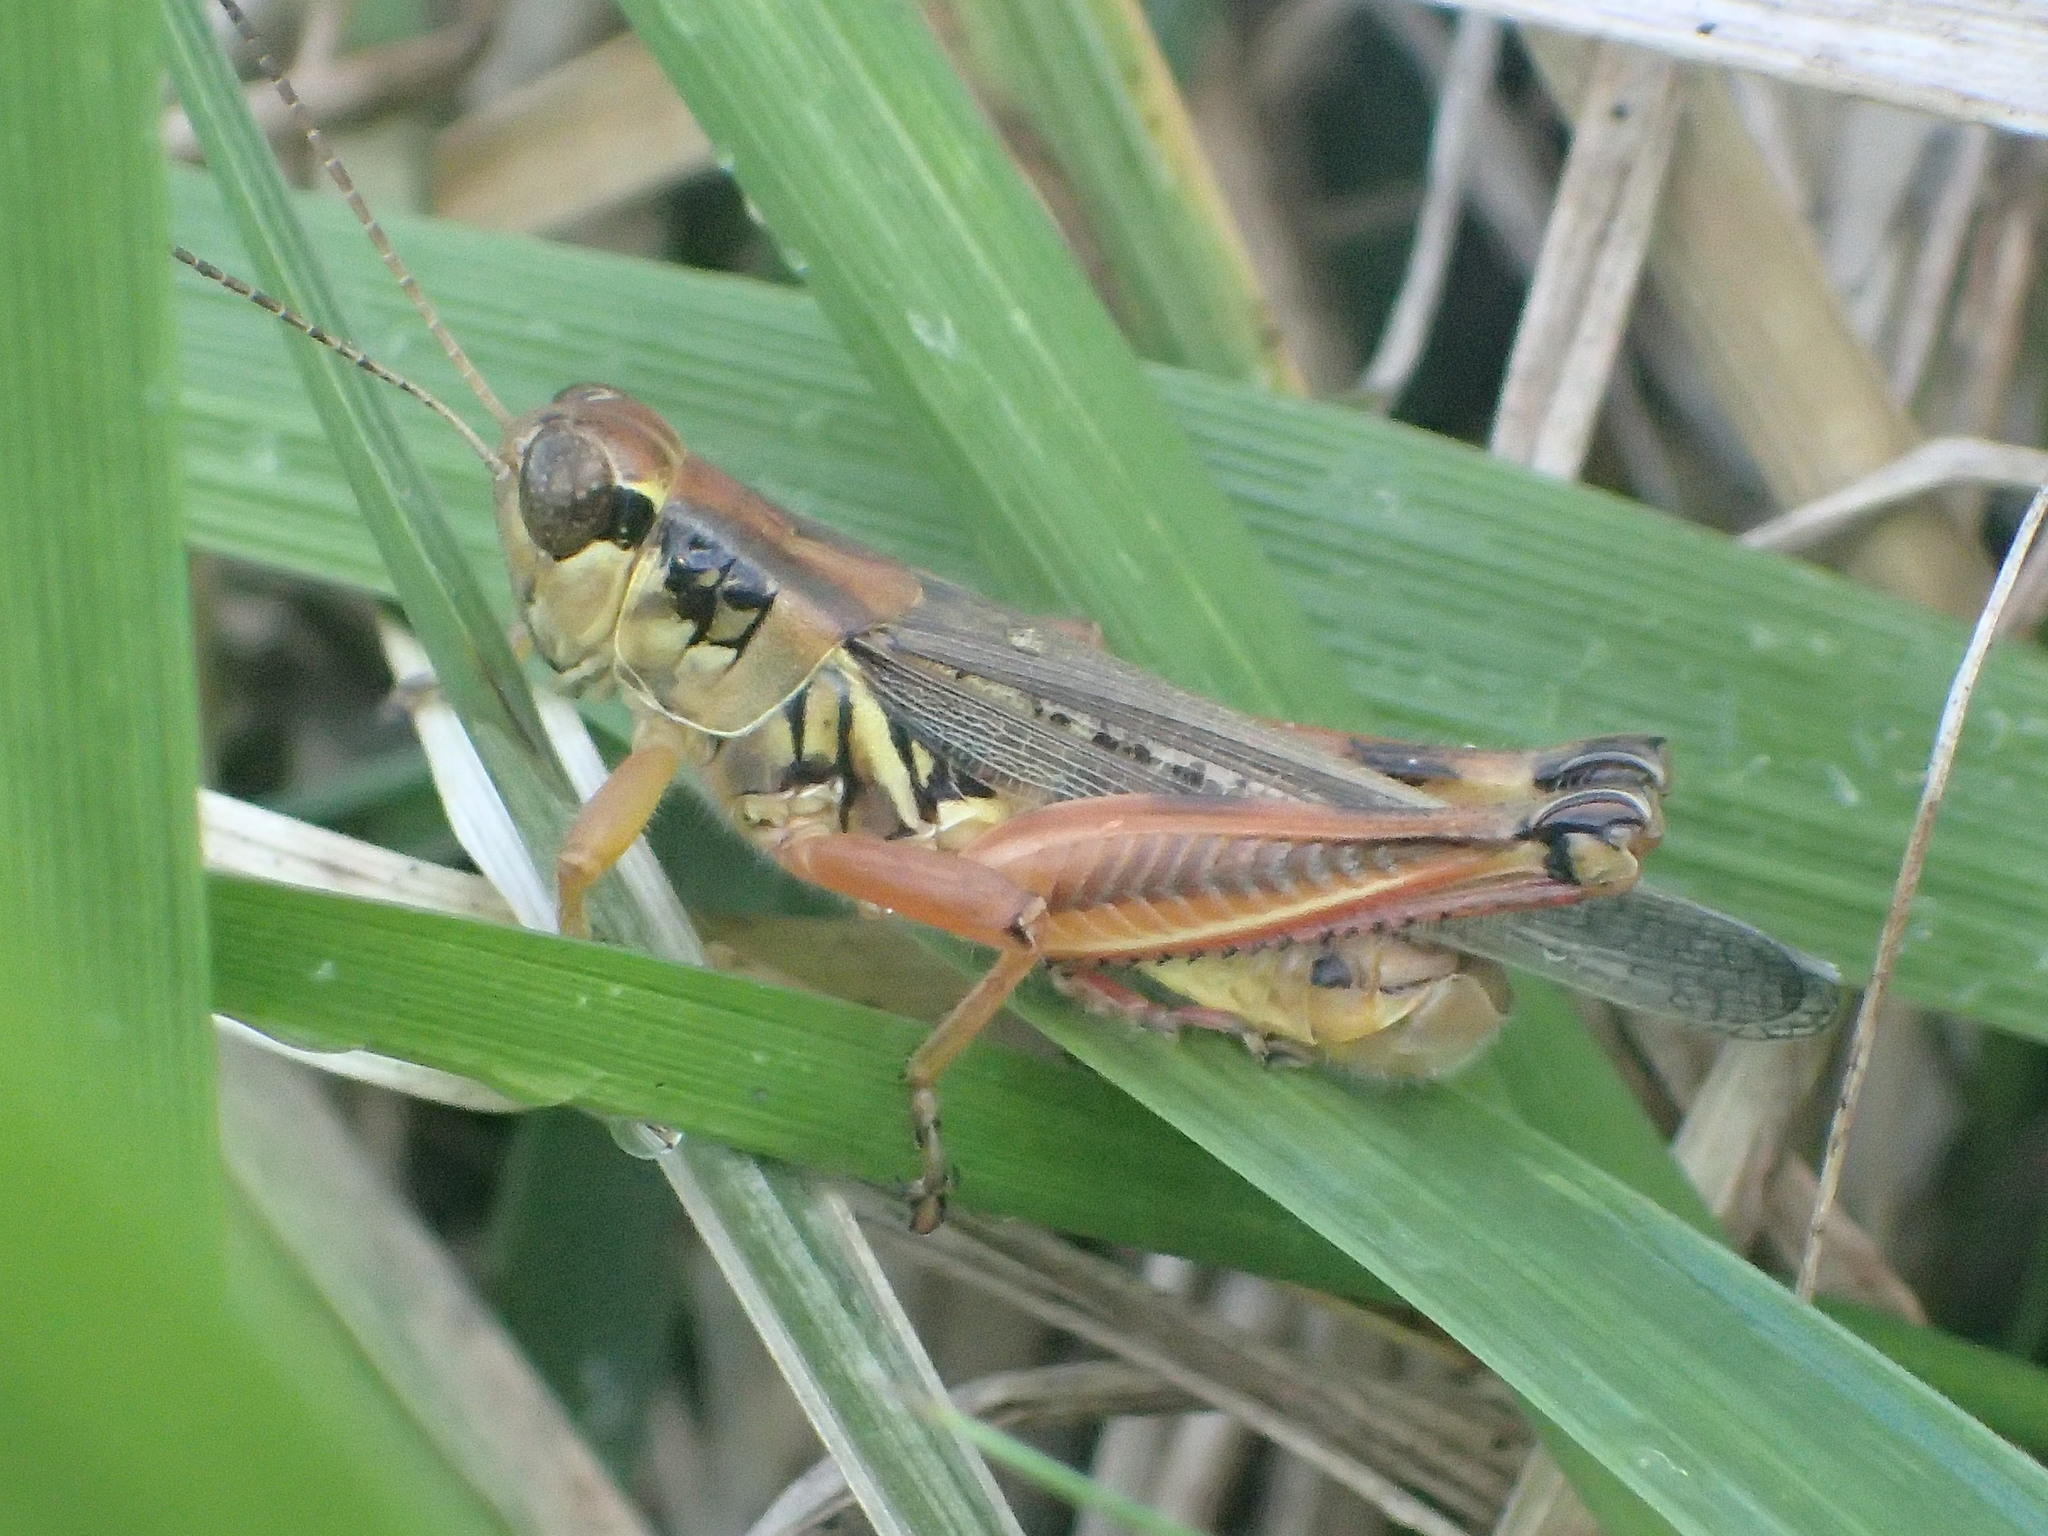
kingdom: Animalia
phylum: Arthropoda
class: Insecta
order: Orthoptera
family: Acrididae
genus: Melanoplus
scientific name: Melanoplus femurrubrum
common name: Red-legged grasshopper
